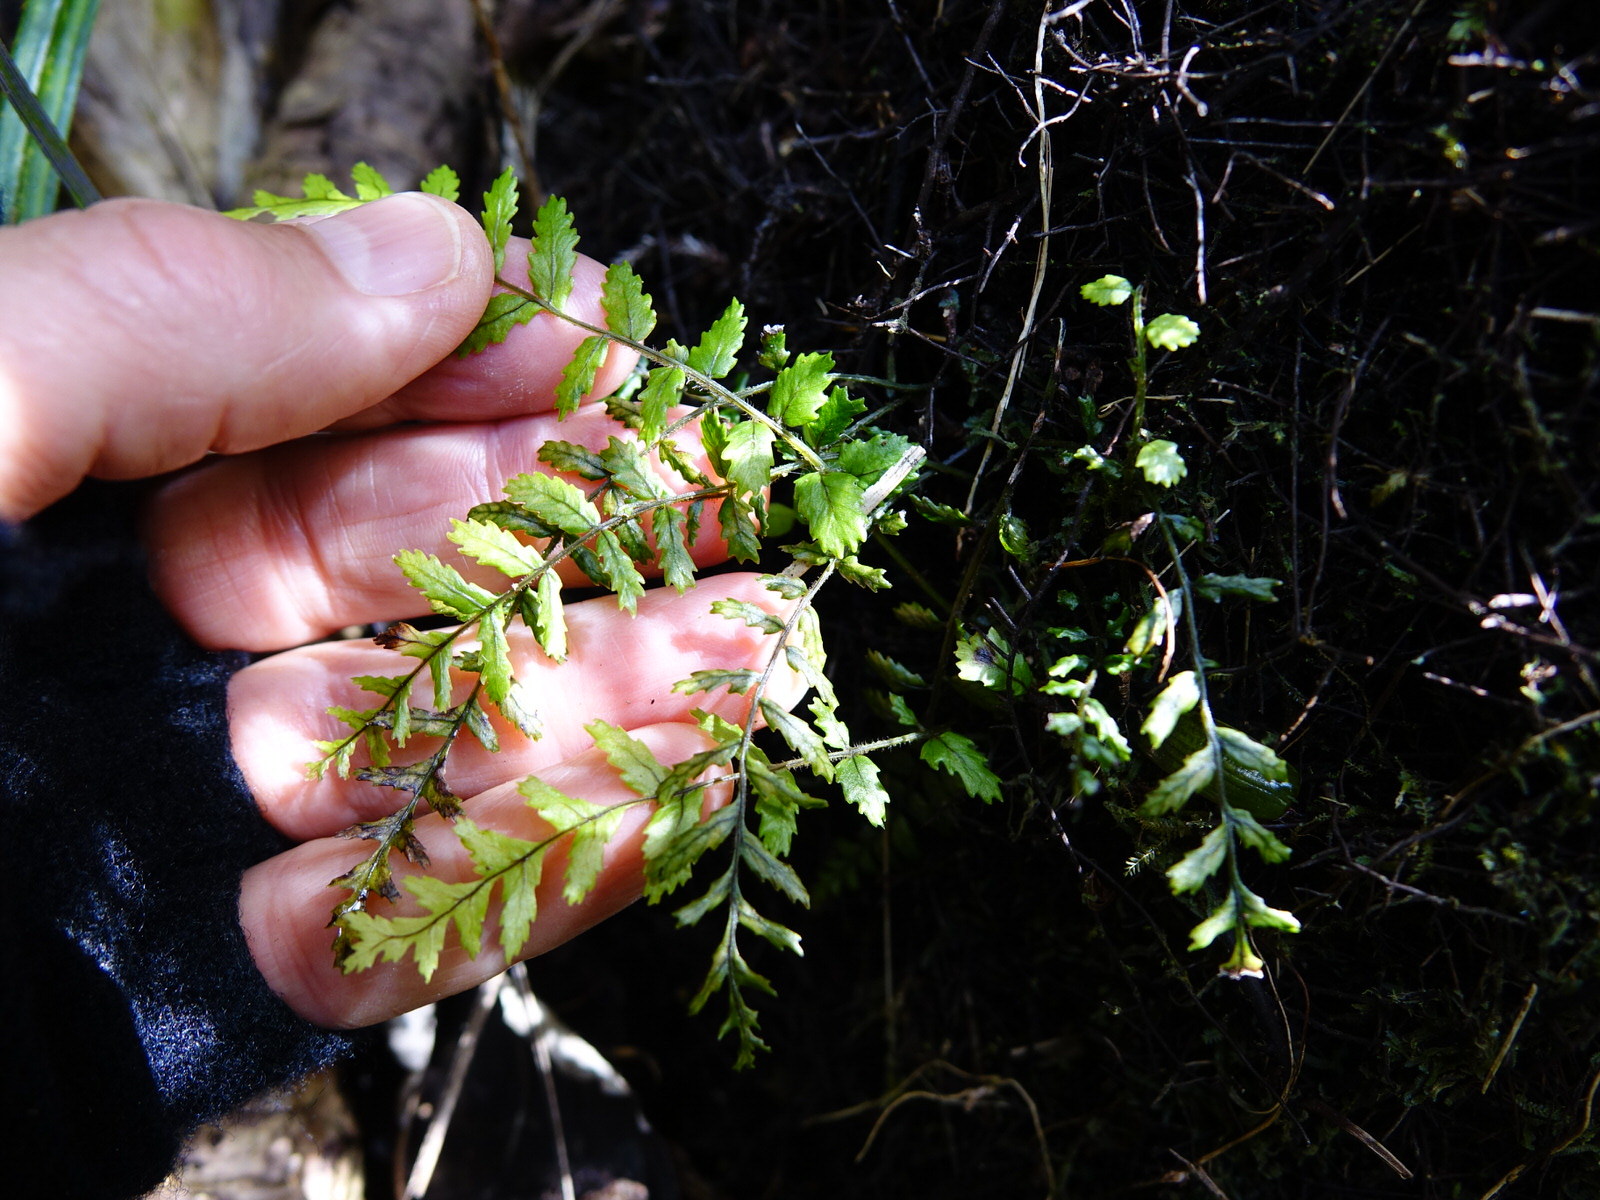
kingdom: Plantae
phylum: Tracheophyta
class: Polypodiopsida
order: Polypodiales
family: Blechnaceae
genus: Icarus
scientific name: Icarus filiformis
